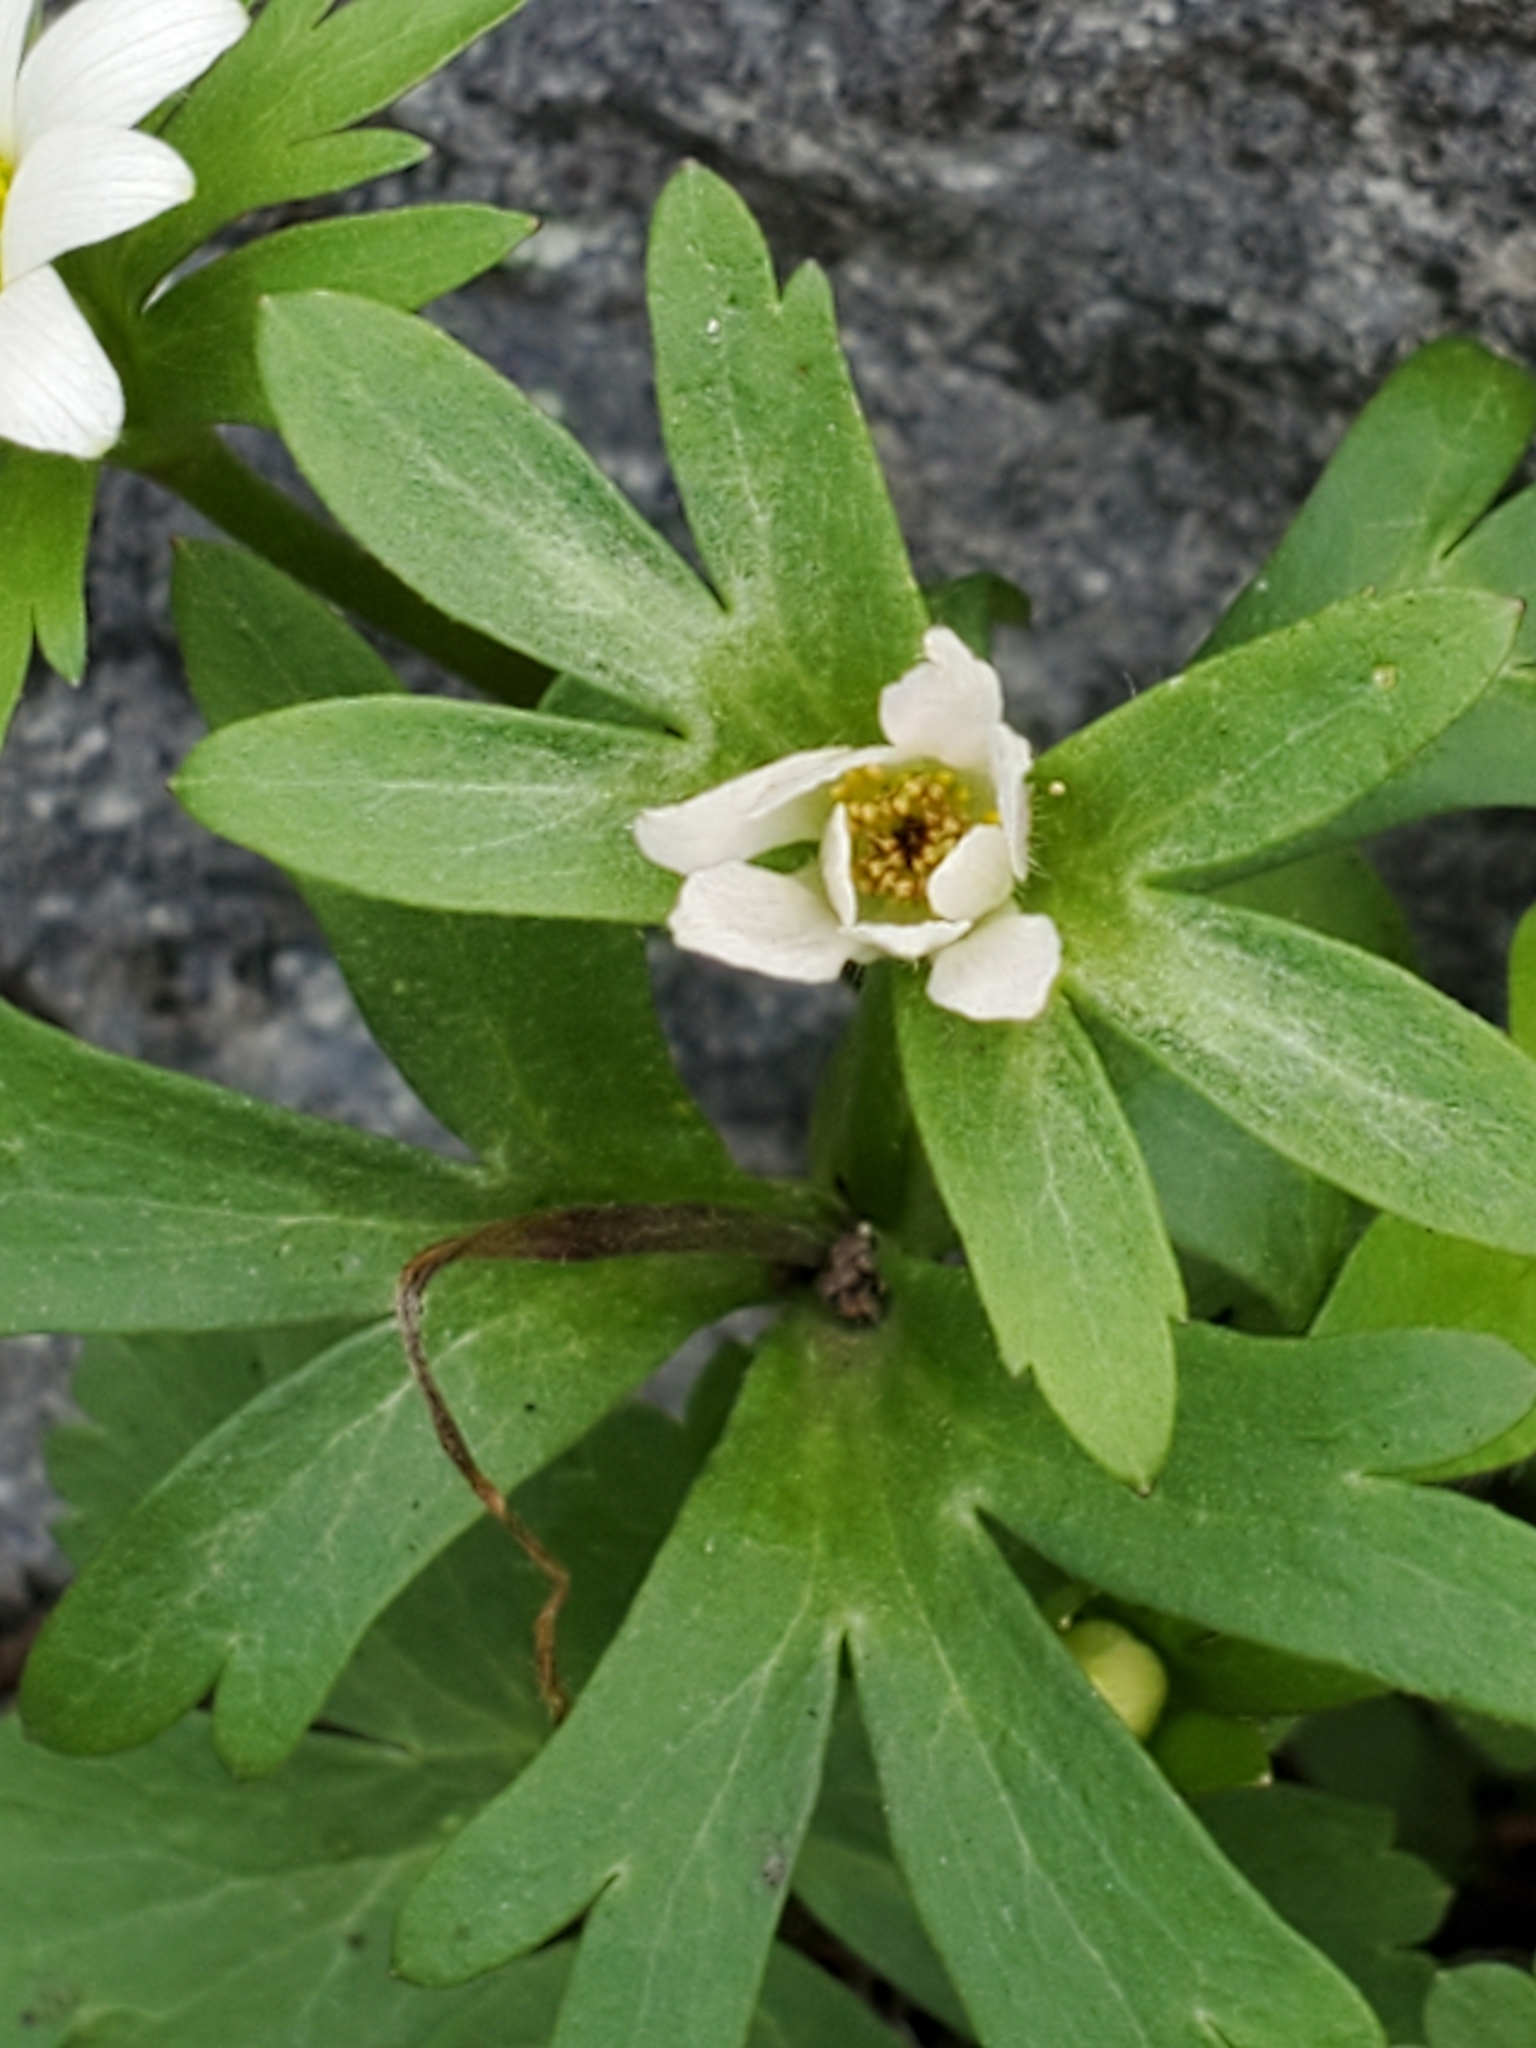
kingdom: Plantae
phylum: Tracheophyta
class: Magnoliopsida
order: Ranunculales
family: Ranunculaceae
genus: Anemone
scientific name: Anemone edwardsiana
